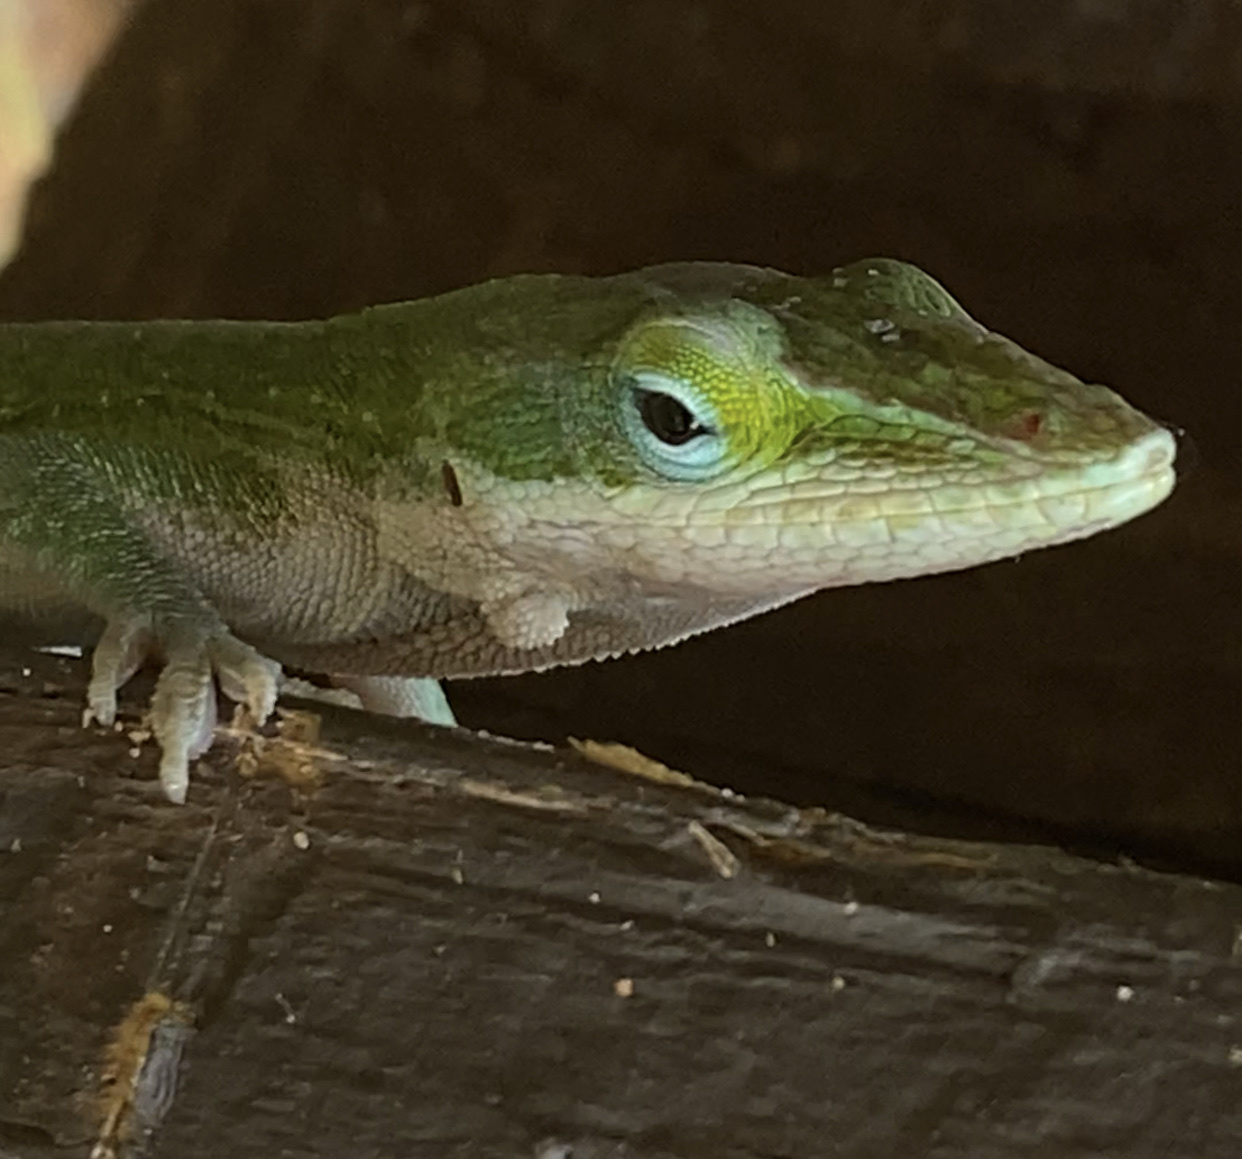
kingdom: Animalia
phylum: Chordata
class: Squamata
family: Dactyloidae
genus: Anolis
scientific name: Anolis carolinensis
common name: Green anole
